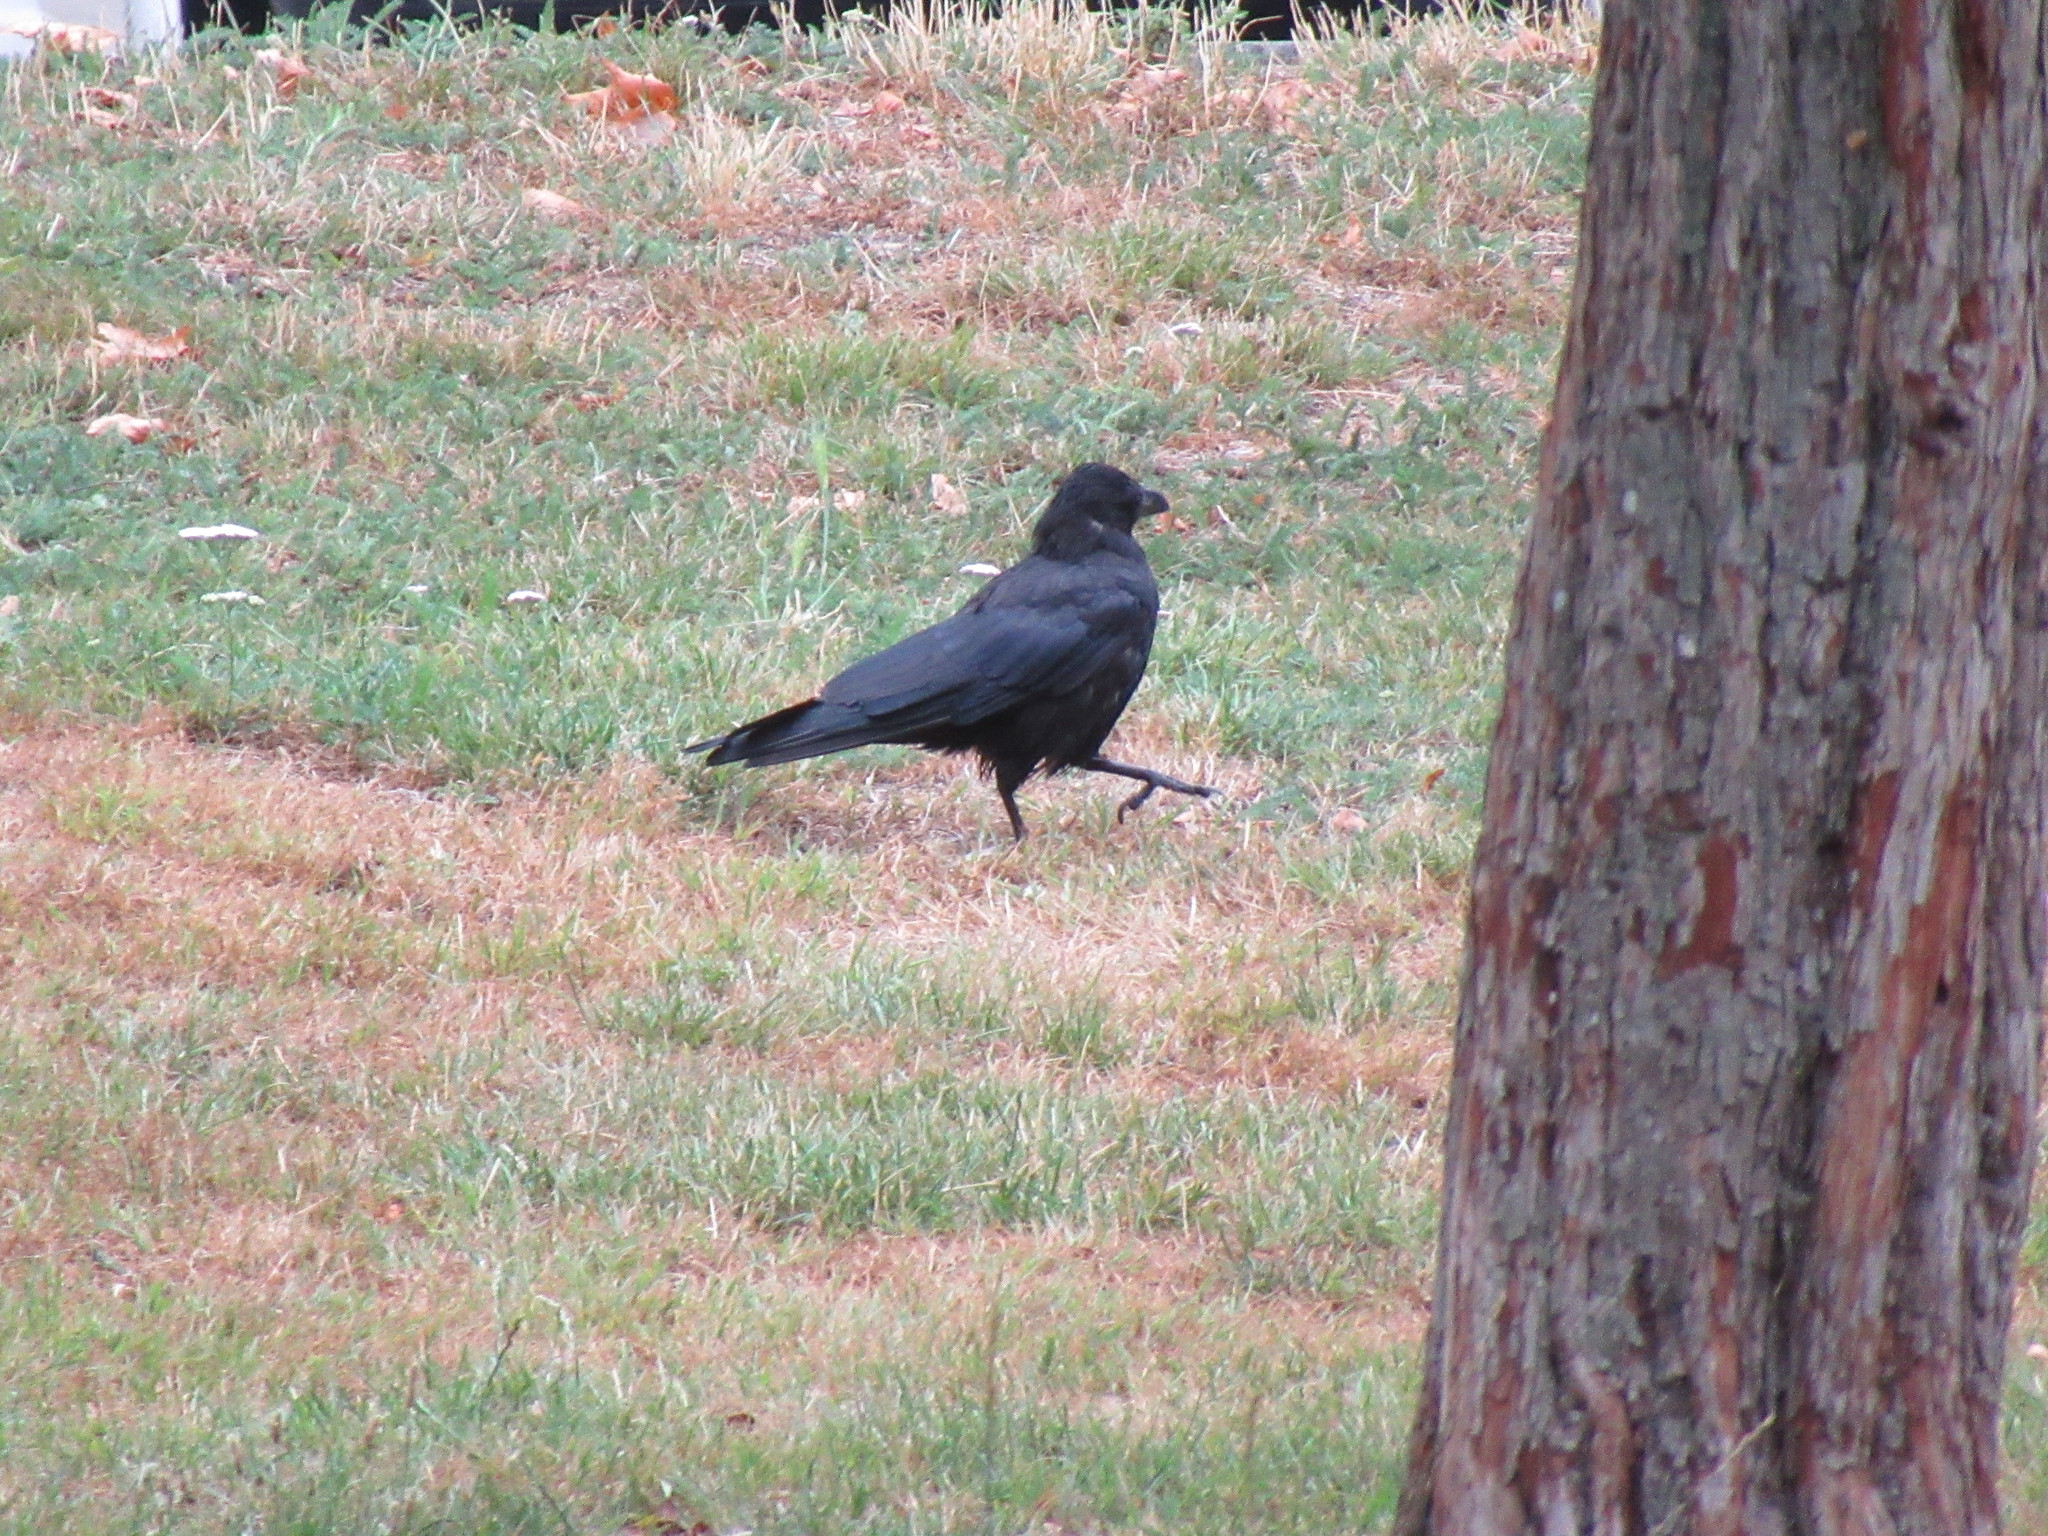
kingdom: Animalia
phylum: Chordata
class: Aves
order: Passeriformes
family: Corvidae
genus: Corvus
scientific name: Corvus corone
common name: Carrion crow
